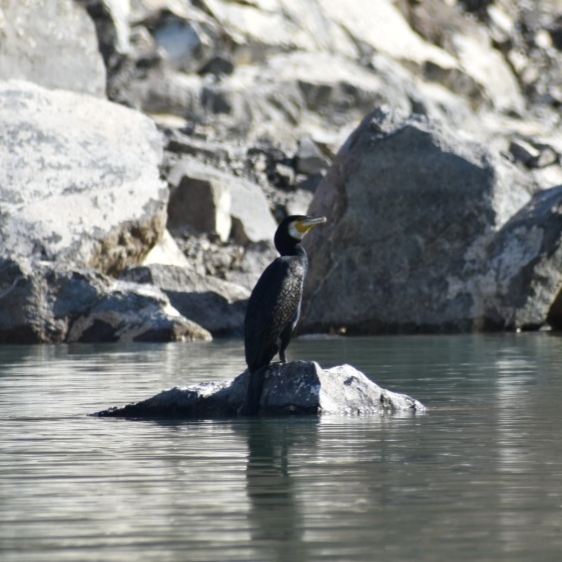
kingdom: Animalia
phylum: Chordata
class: Aves
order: Suliformes
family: Phalacrocoracidae
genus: Phalacrocorax
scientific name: Phalacrocorax carbo
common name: Great cormorant
